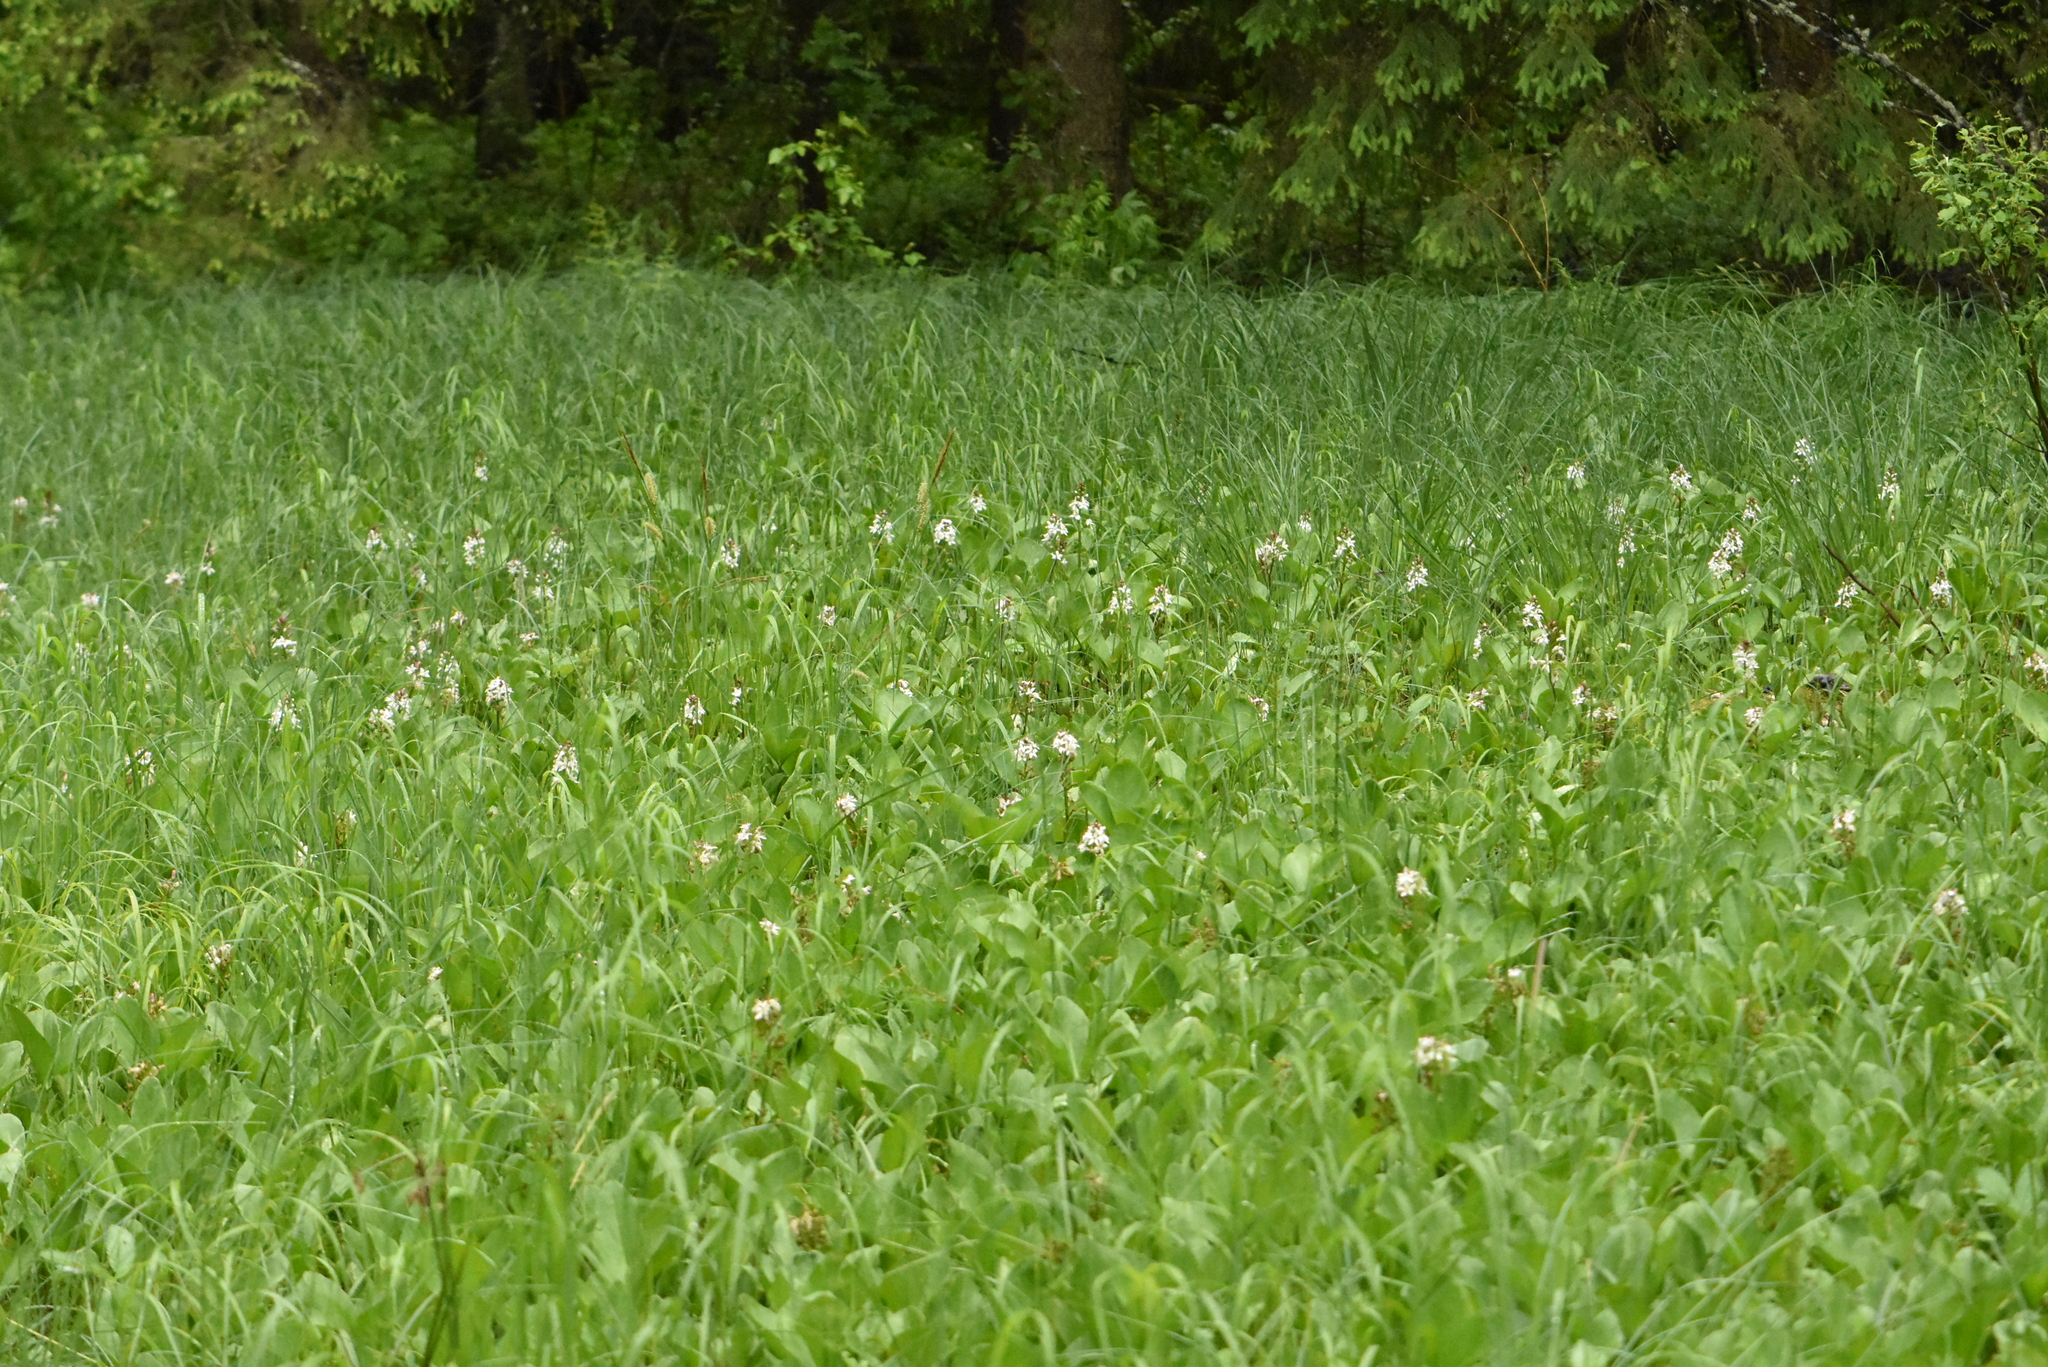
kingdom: Plantae
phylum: Tracheophyta
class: Magnoliopsida
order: Asterales
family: Menyanthaceae
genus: Menyanthes
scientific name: Menyanthes trifoliata
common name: Bogbean
